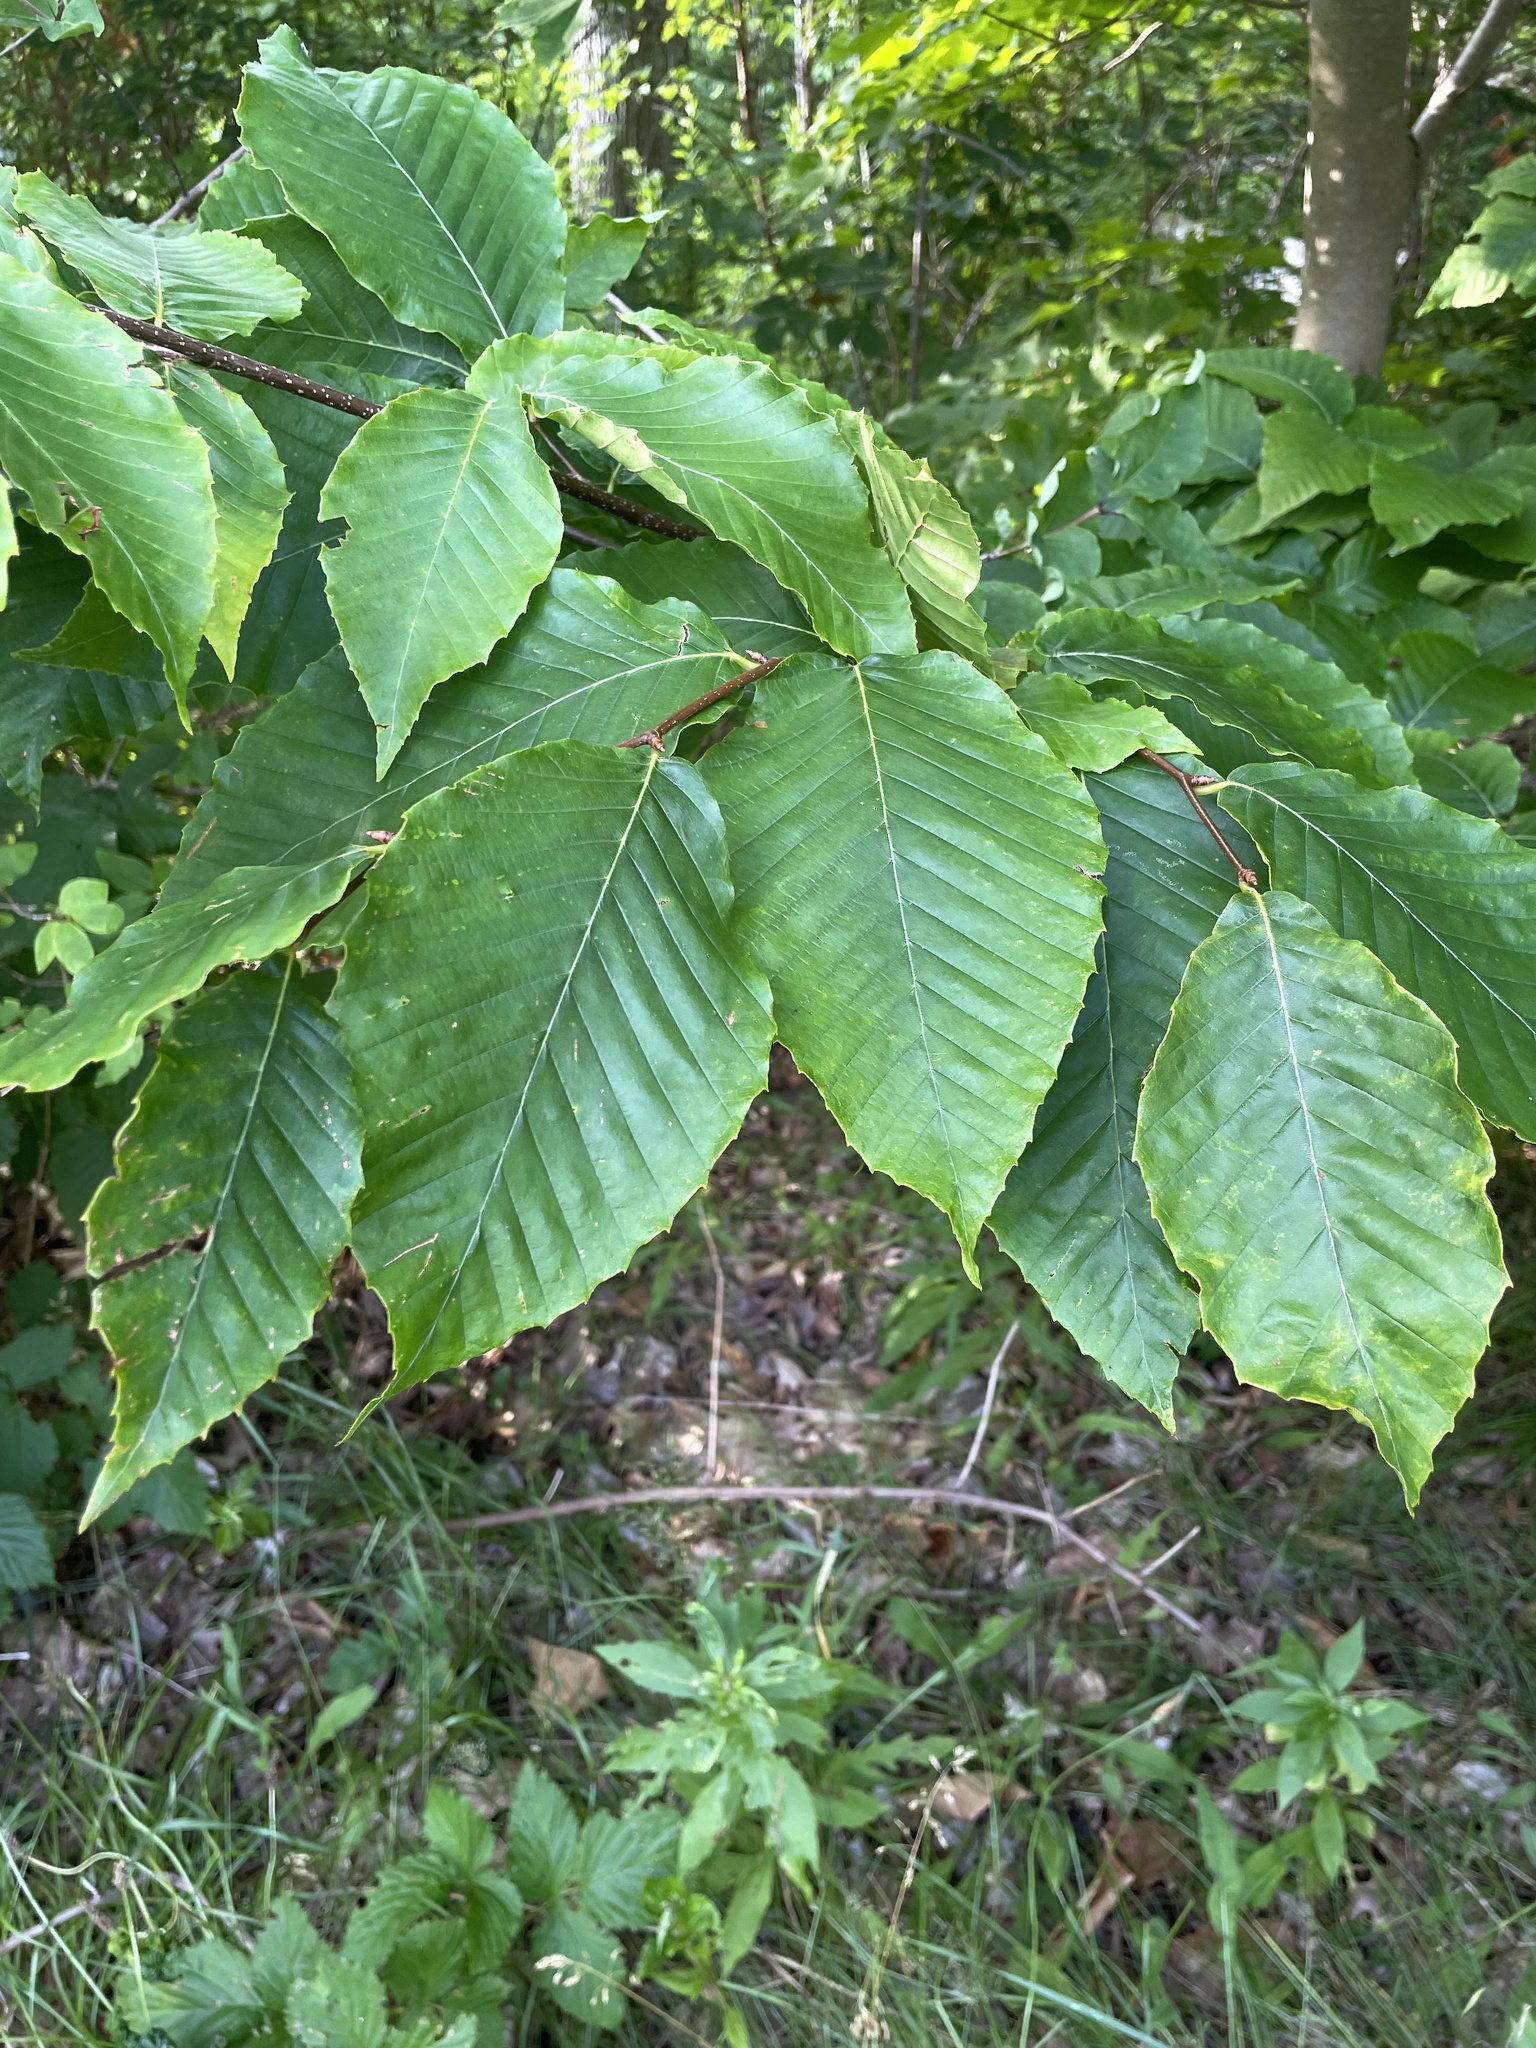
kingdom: Plantae
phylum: Tracheophyta
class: Magnoliopsida
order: Fagales
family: Fagaceae
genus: Fagus
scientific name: Fagus grandifolia
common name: American beech
